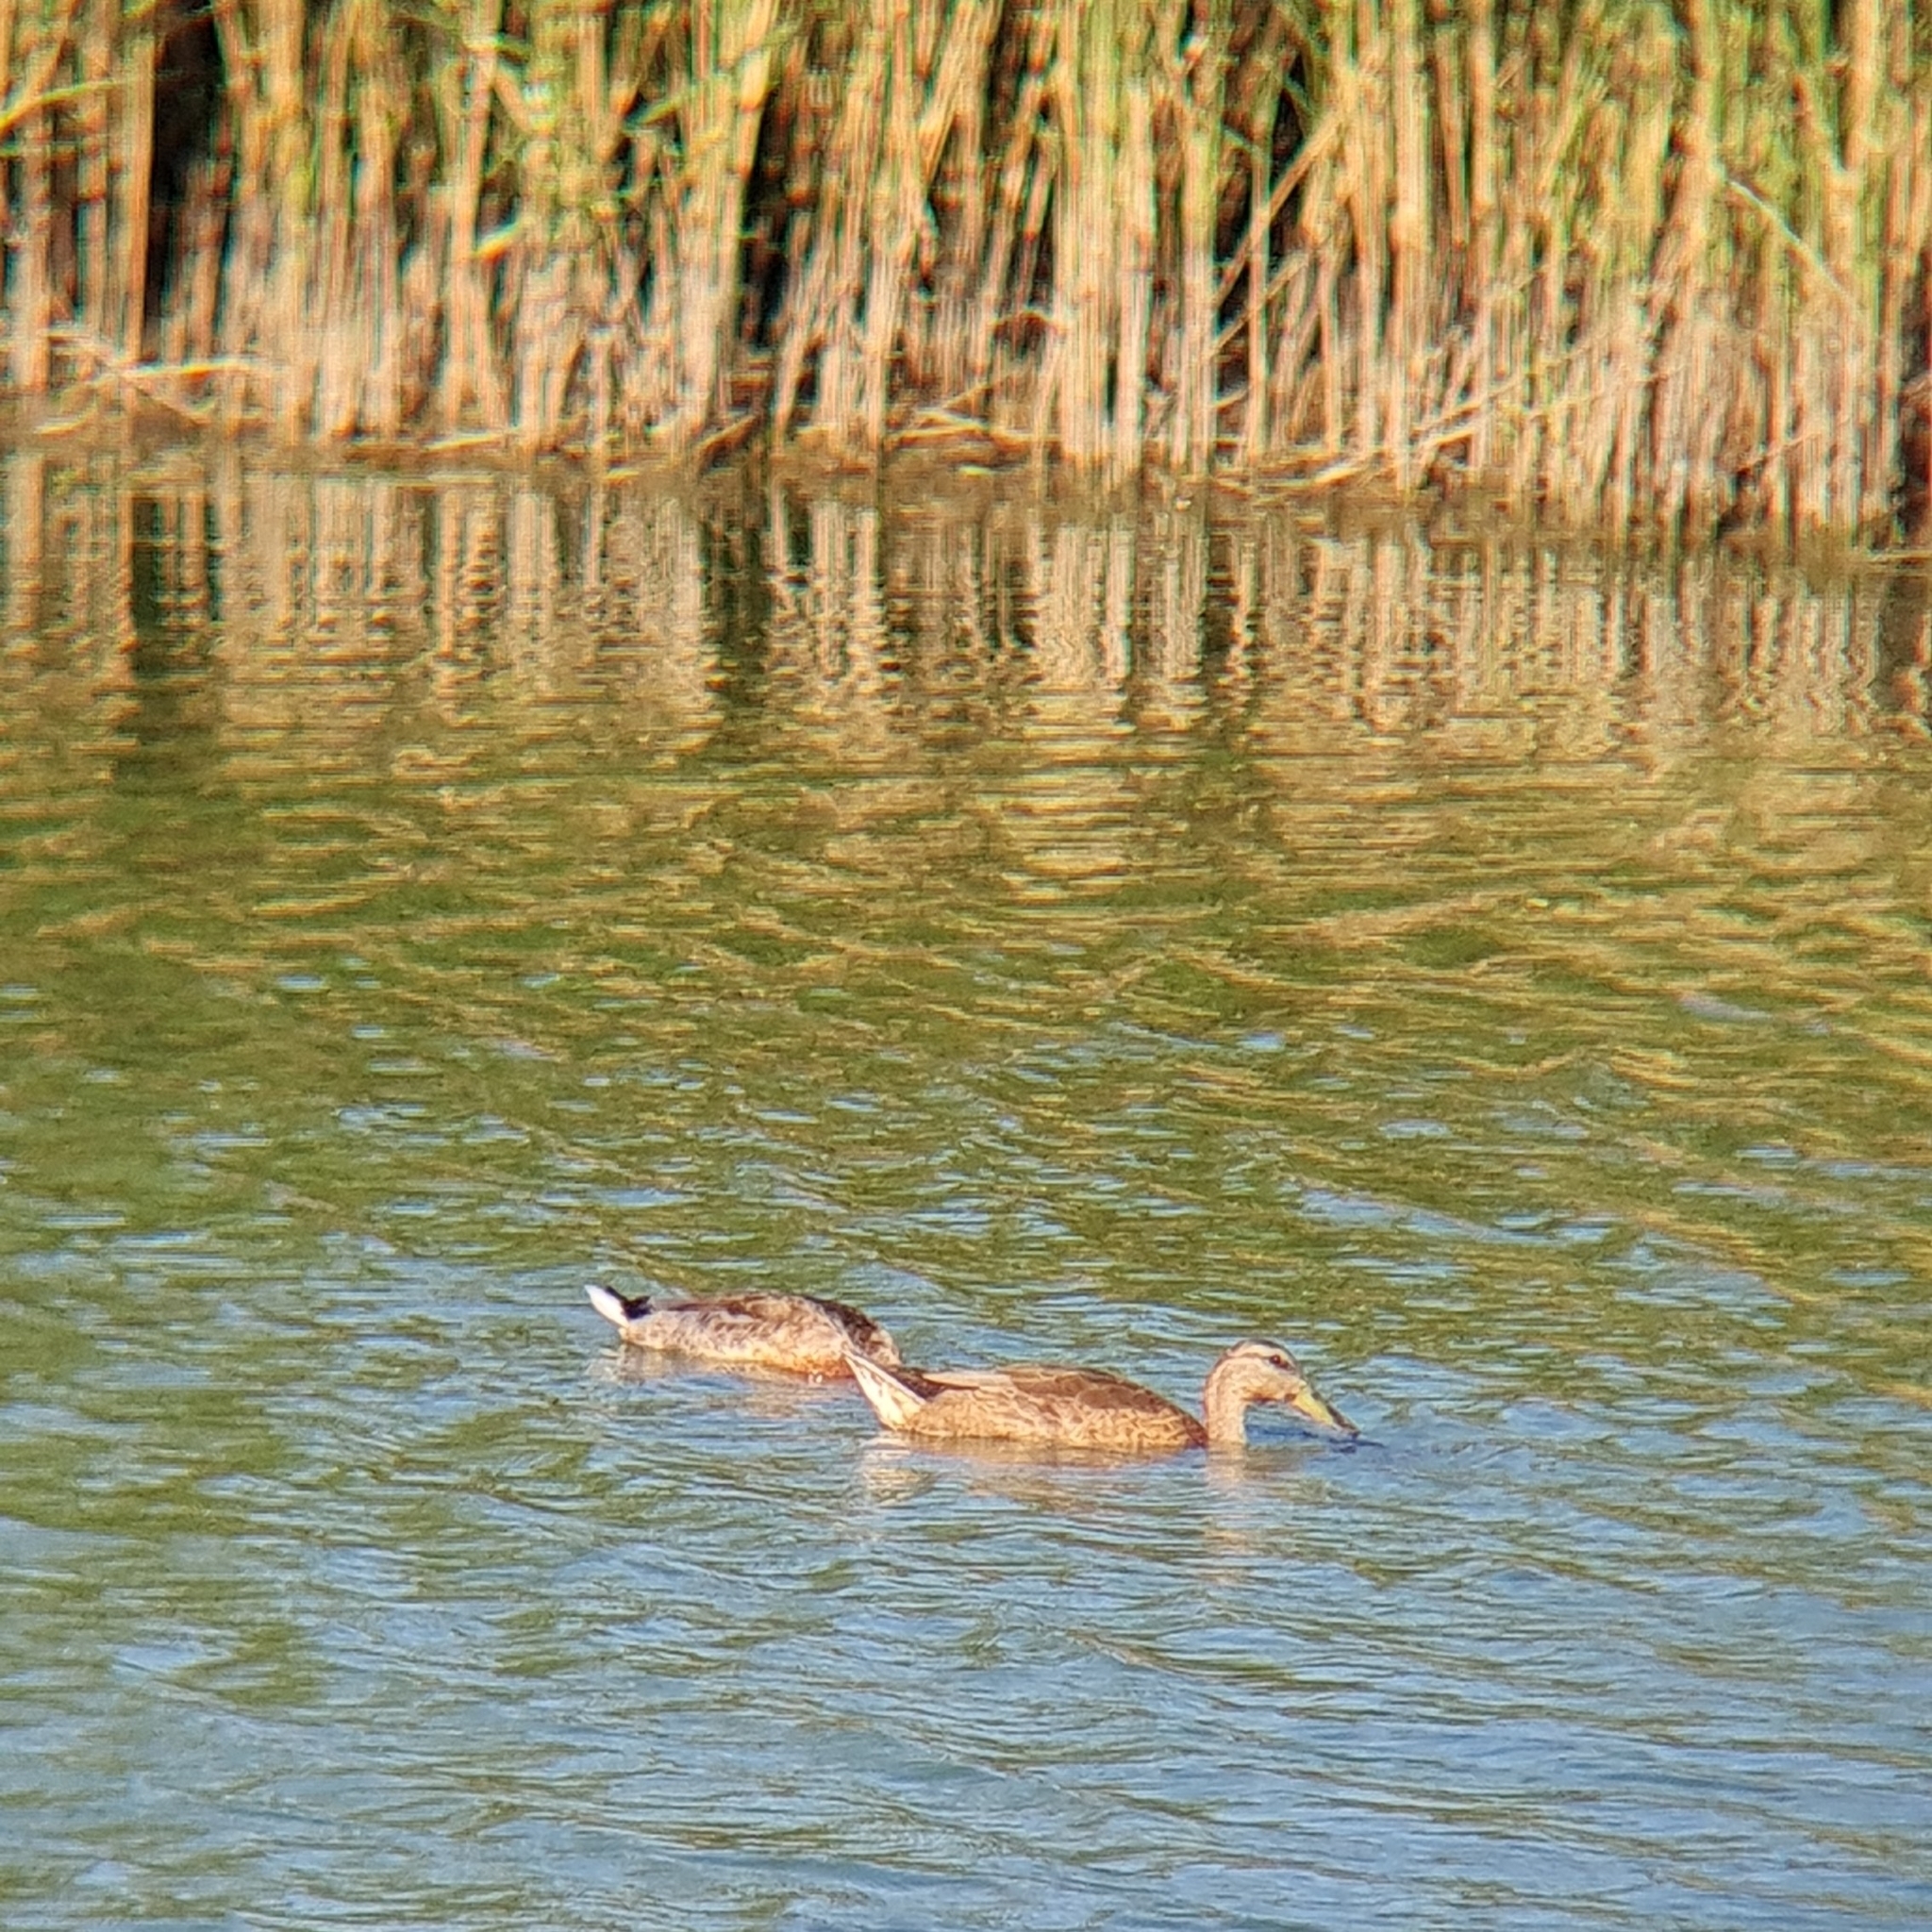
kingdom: Animalia
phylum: Chordata
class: Aves
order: Anseriformes
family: Anatidae
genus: Anas
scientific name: Anas platyrhynchos
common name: Mallard
